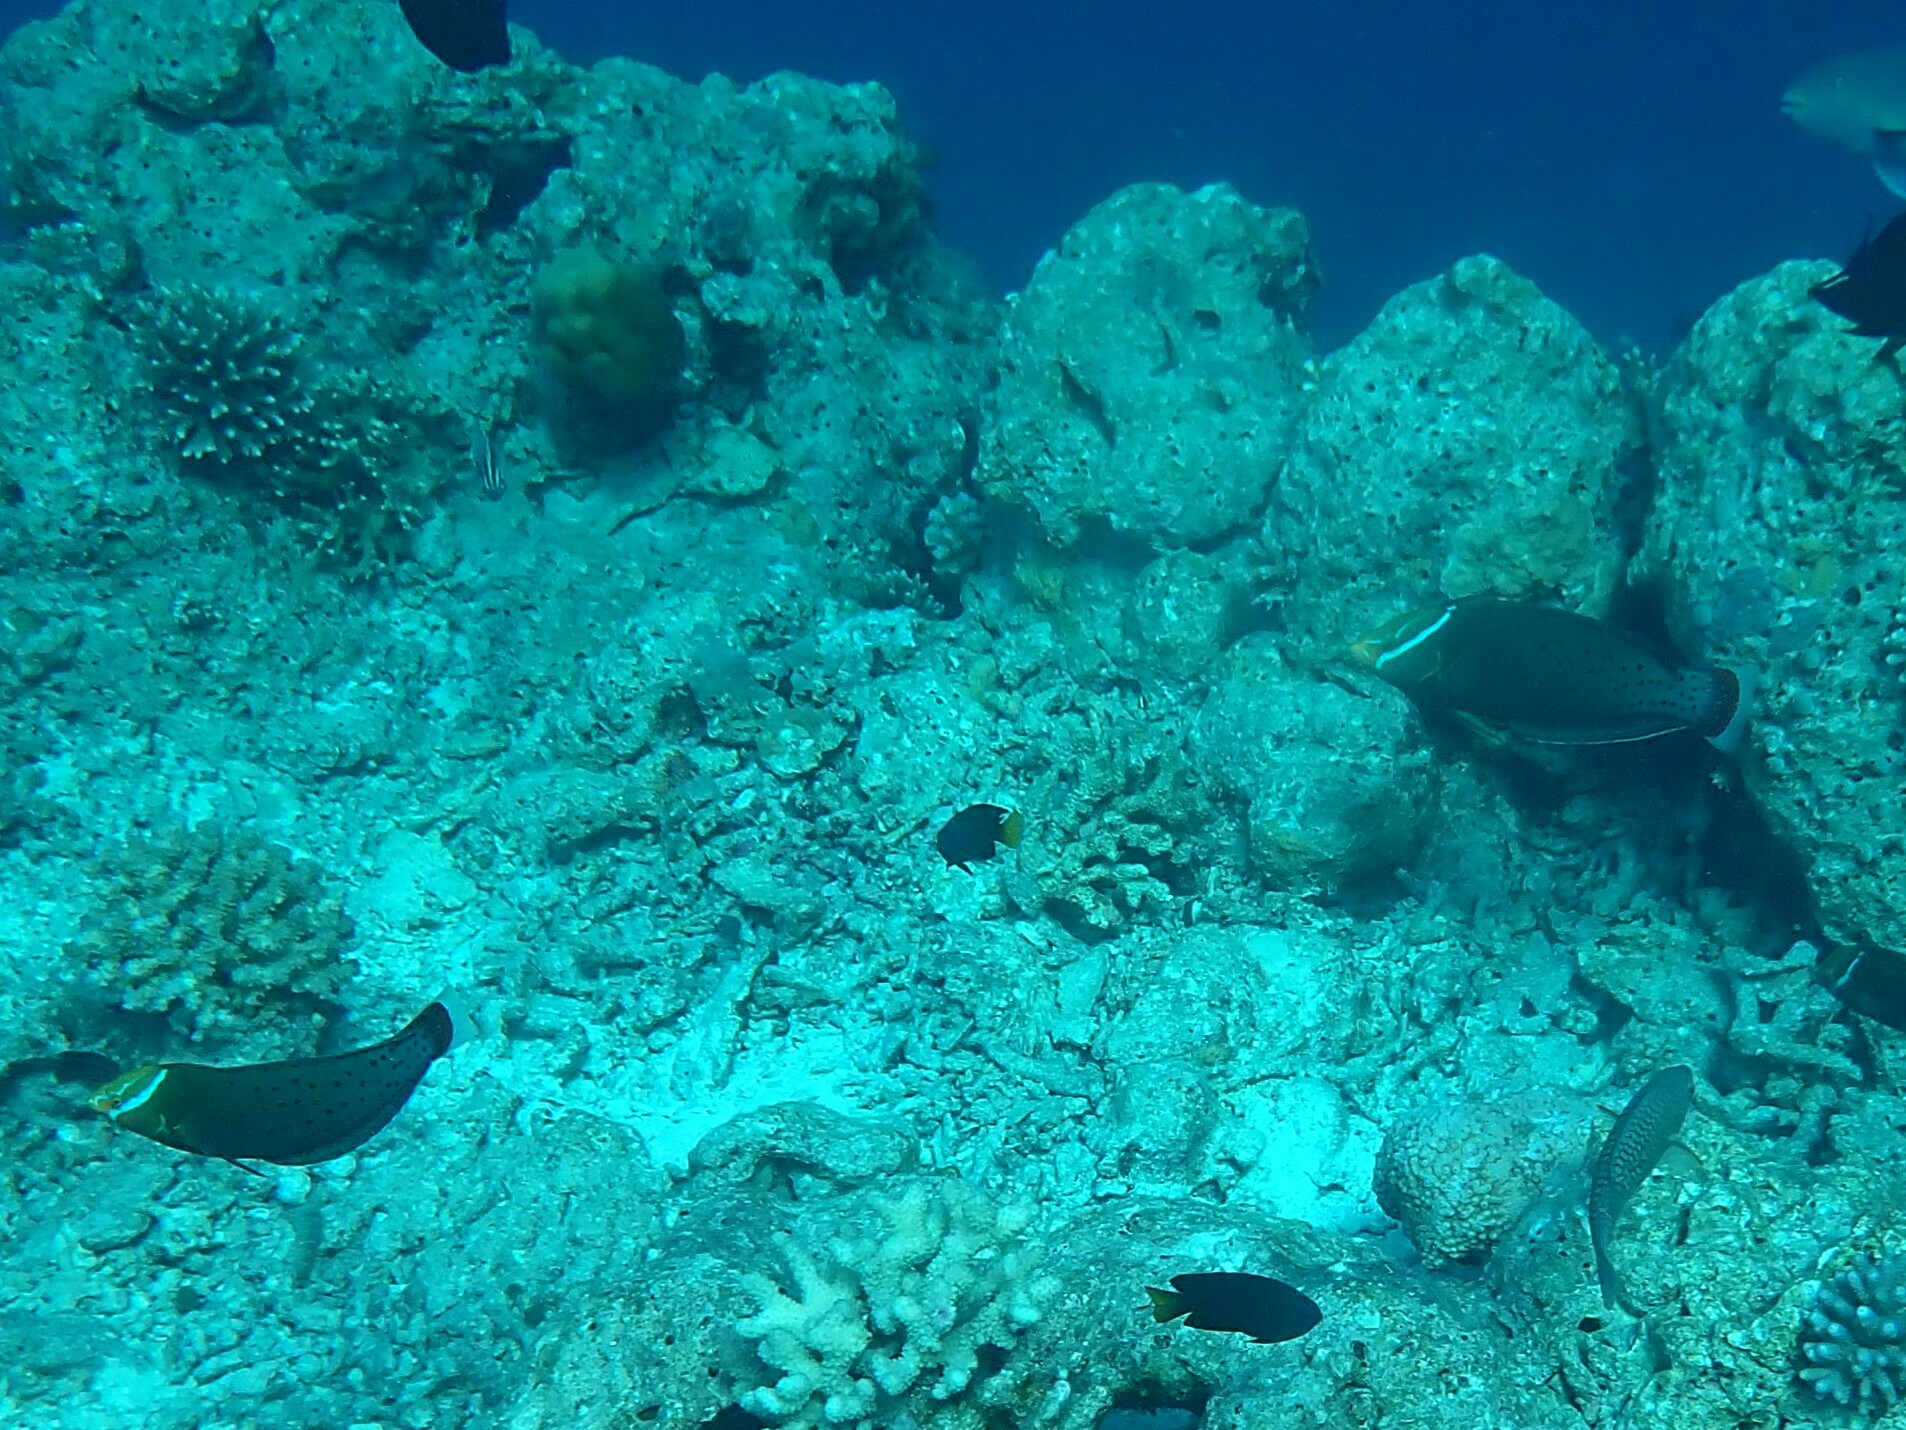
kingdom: Animalia
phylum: Chordata
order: Perciformes
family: Labridae
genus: Coris
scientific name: Coris formosa
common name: Queen coris
